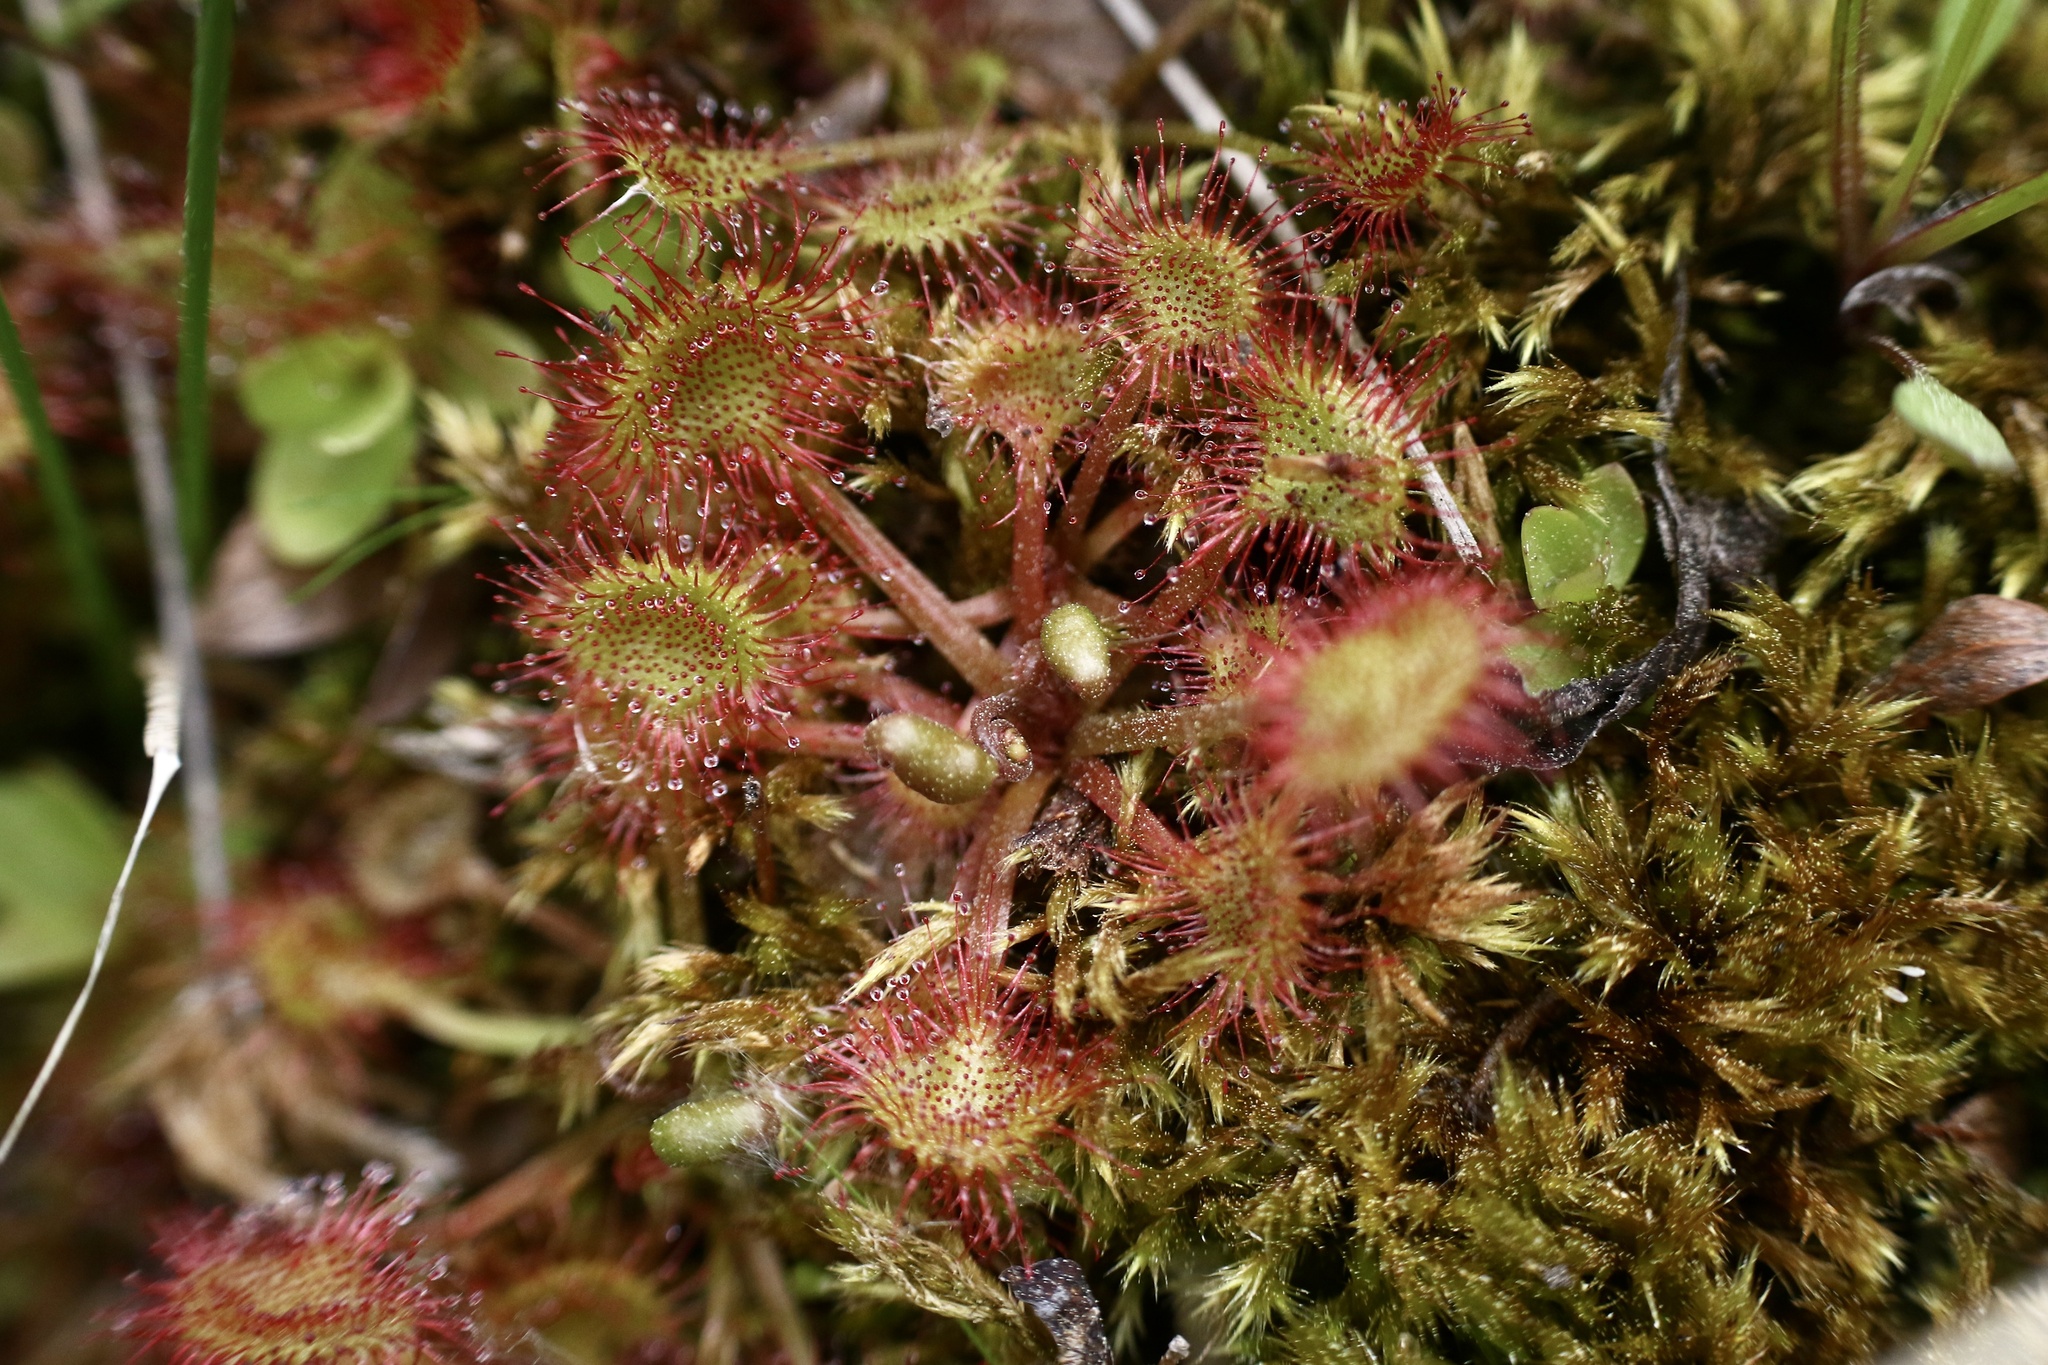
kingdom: Plantae
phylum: Tracheophyta
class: Magnoliopsida
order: Caryophyllales
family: Droseraceae
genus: Drosera
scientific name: Drosera rotundifolia
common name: Round-leaved sundew
